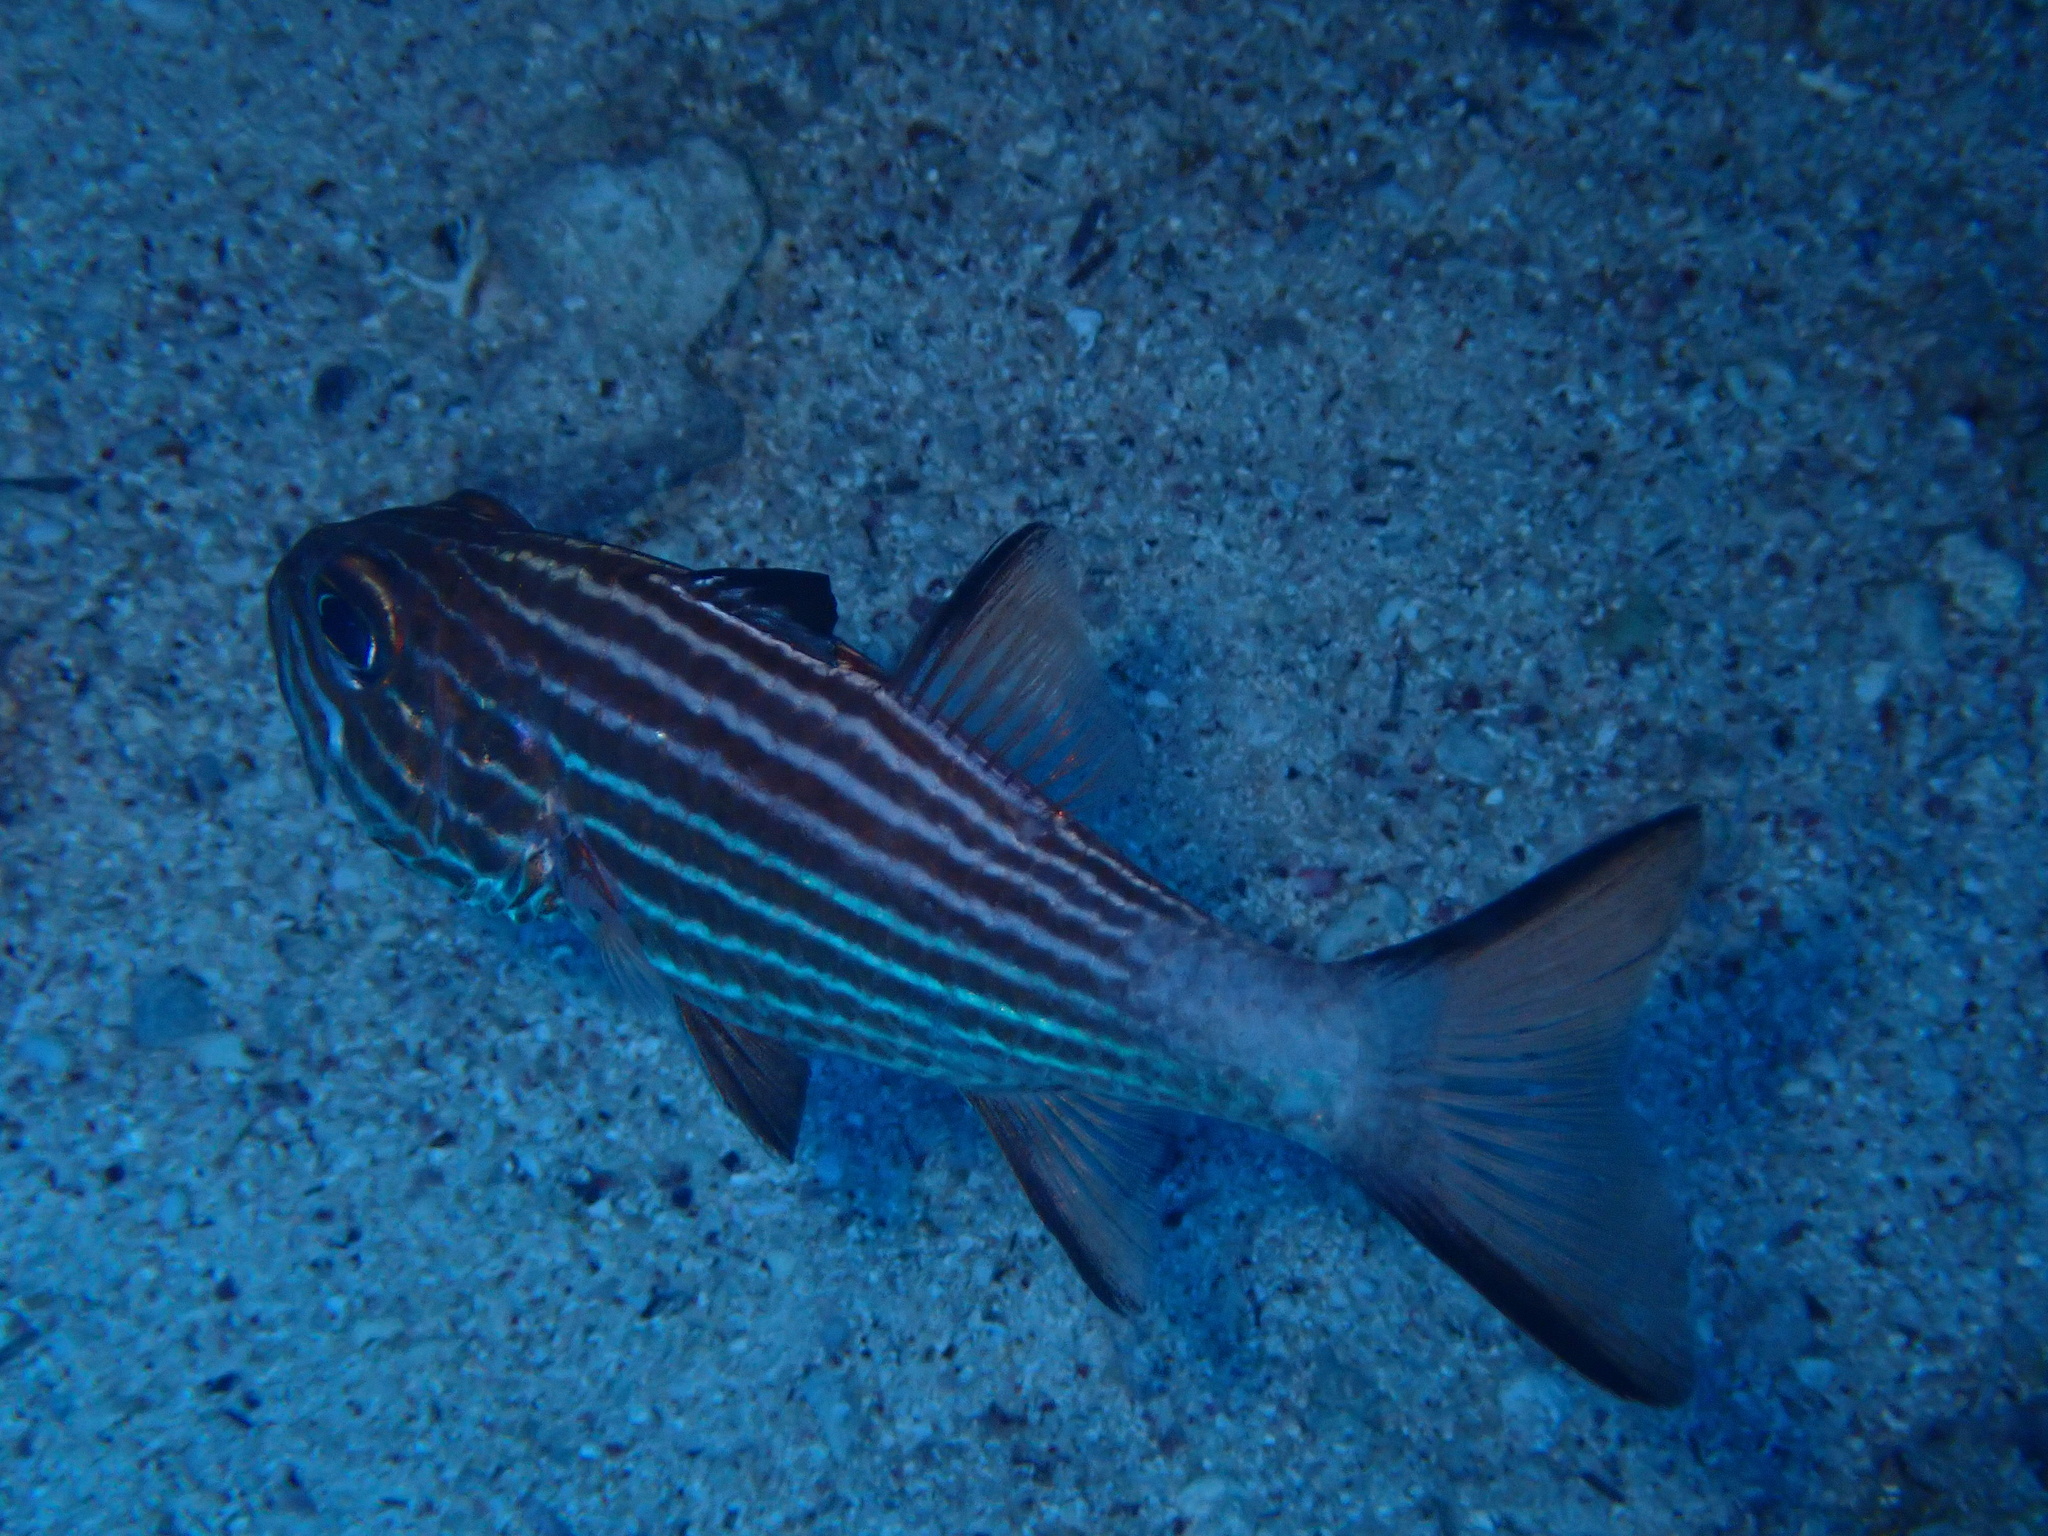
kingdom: Animalia
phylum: Chordata
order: Perciformes
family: Apogonidae
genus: Cheilodipterus
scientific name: Cheilodipterus macrodon
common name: Eight-lined cardinalfish
